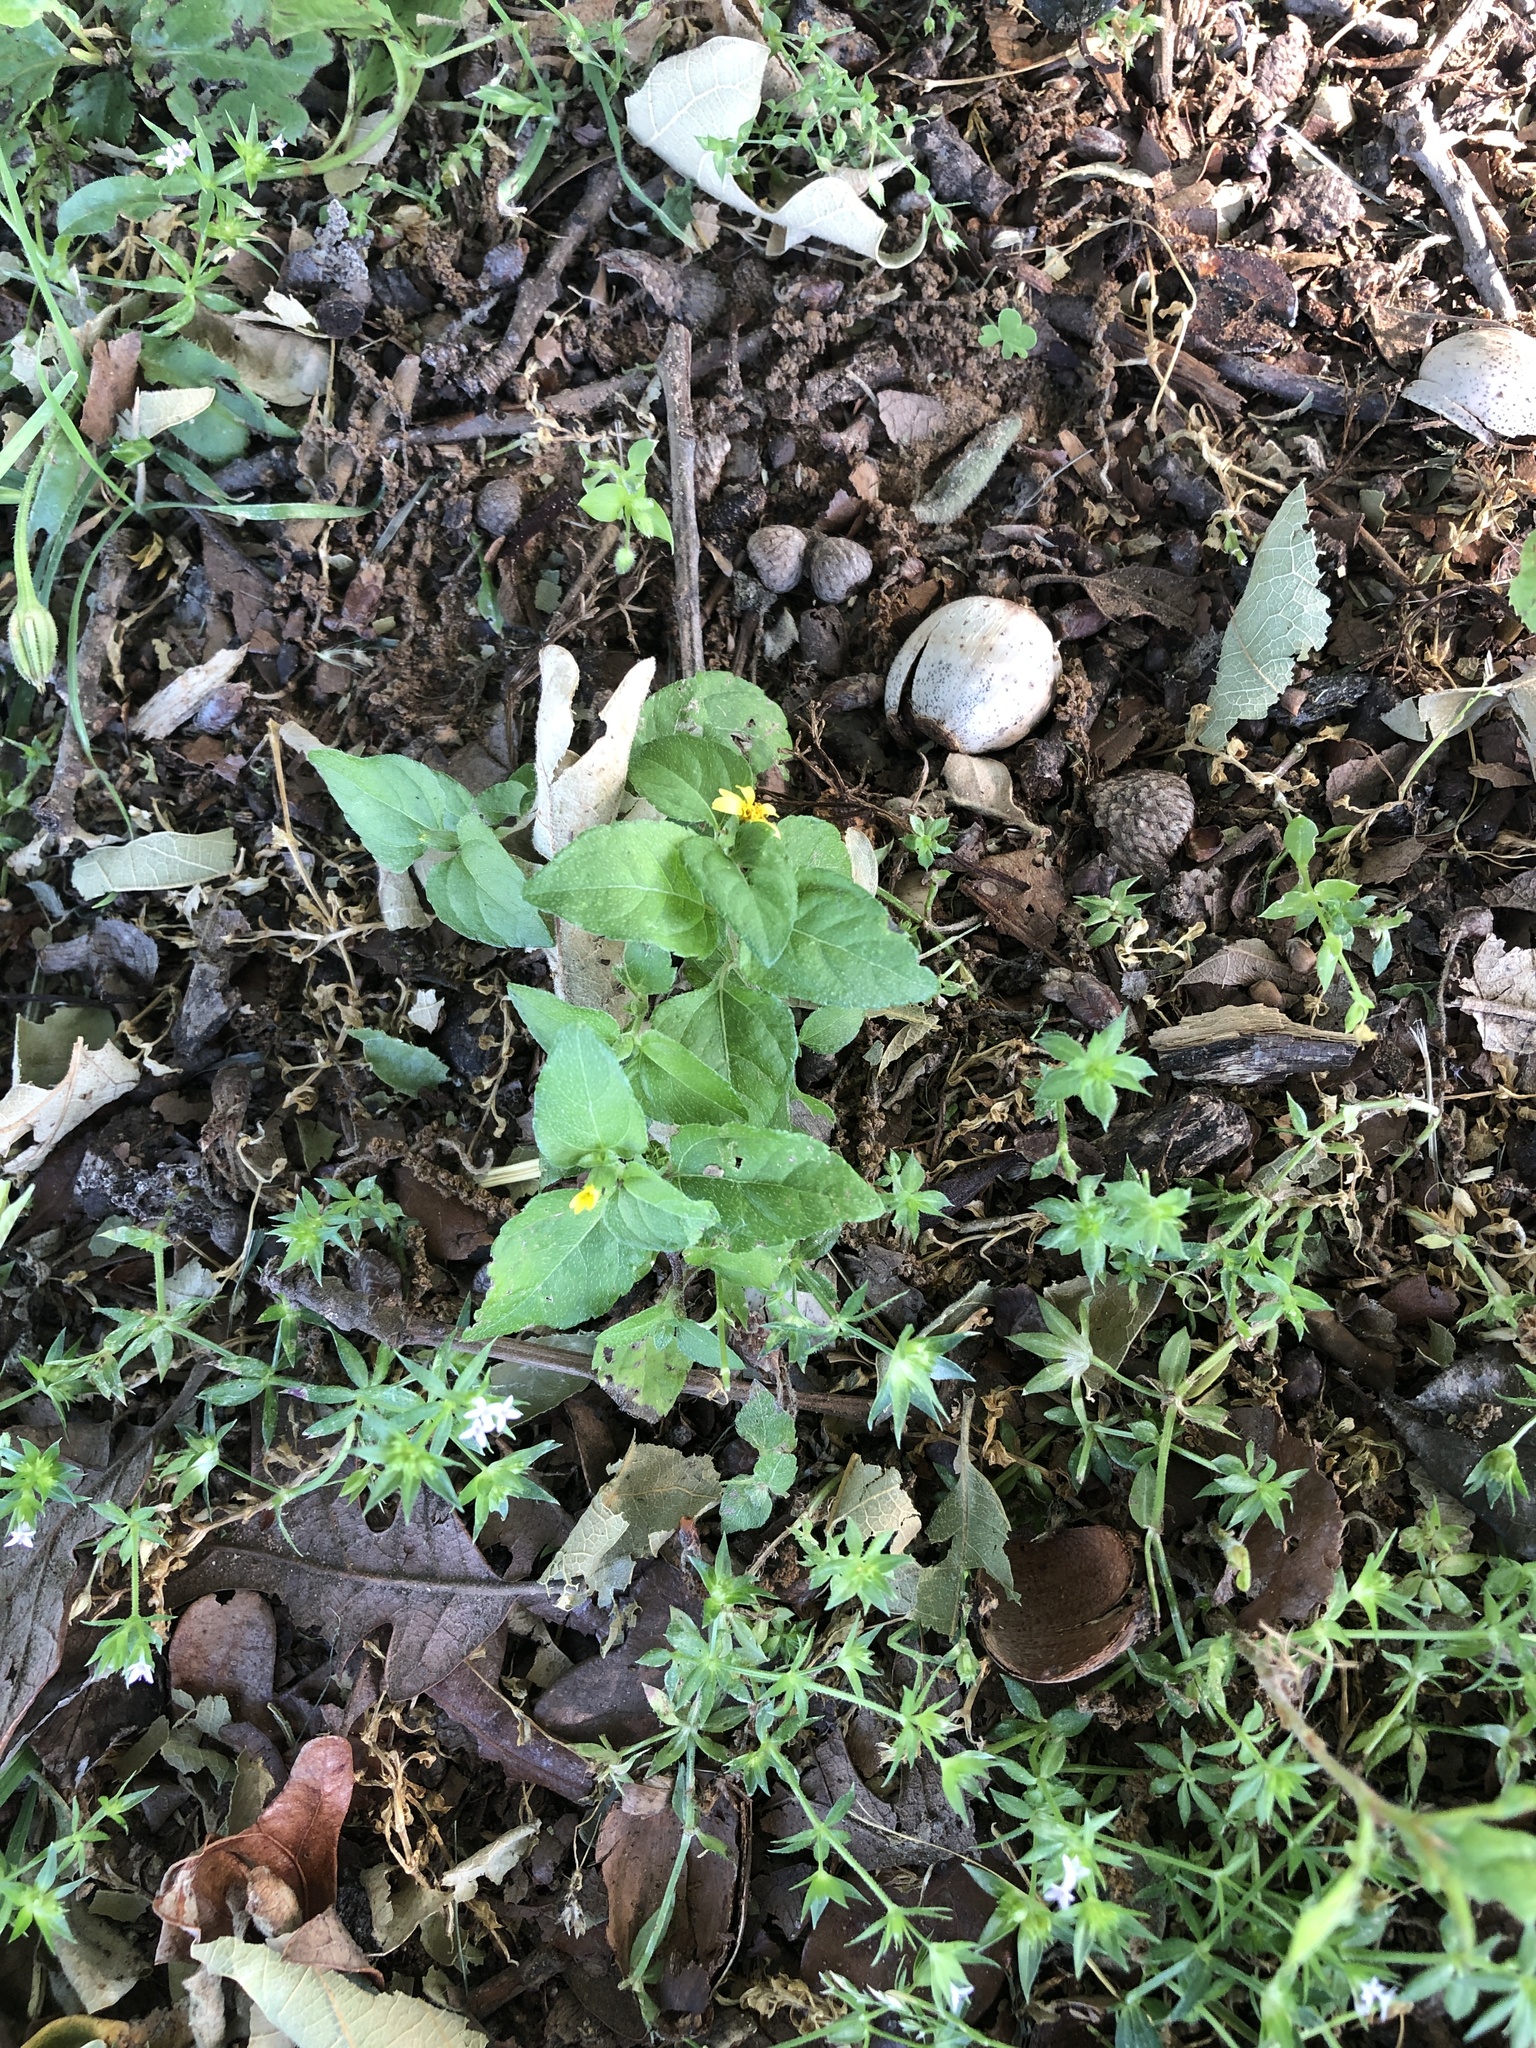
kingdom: Plantae
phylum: Tracheophyta
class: Magnoliopsida
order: Asterales
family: Asteraceae
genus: Calyptocarpus
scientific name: Calyptocarpus vialis
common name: Straggler daisy
